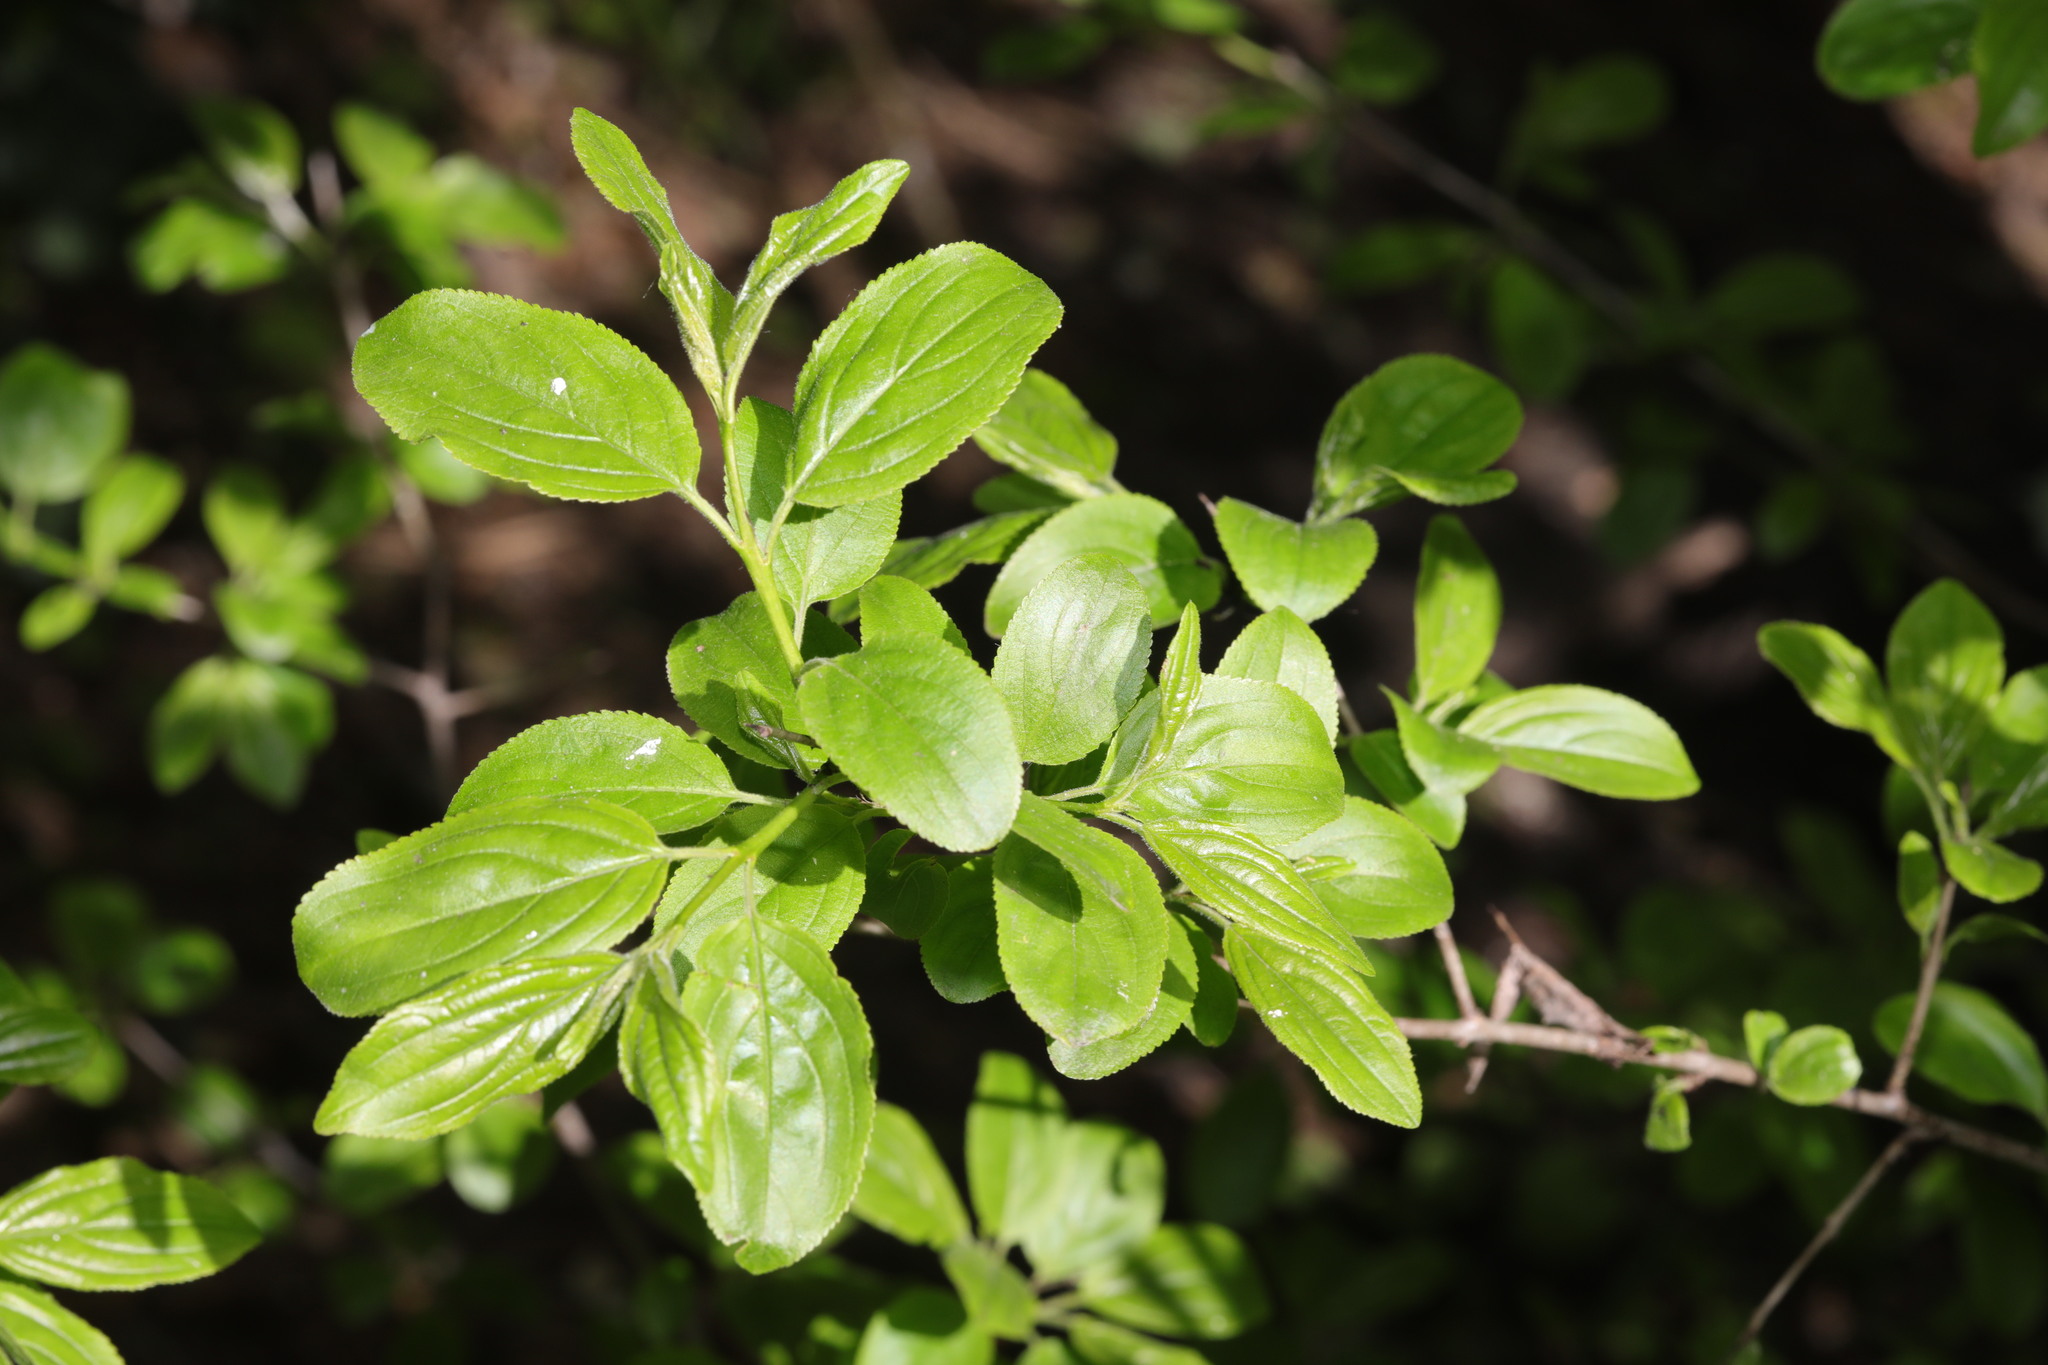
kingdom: Plantae
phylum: Tracheophyta
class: Magnoliopsida
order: Rosales
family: Rhamnaceae
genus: Rhamnus
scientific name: Rhamnus cathartica
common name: Common buckthorn
